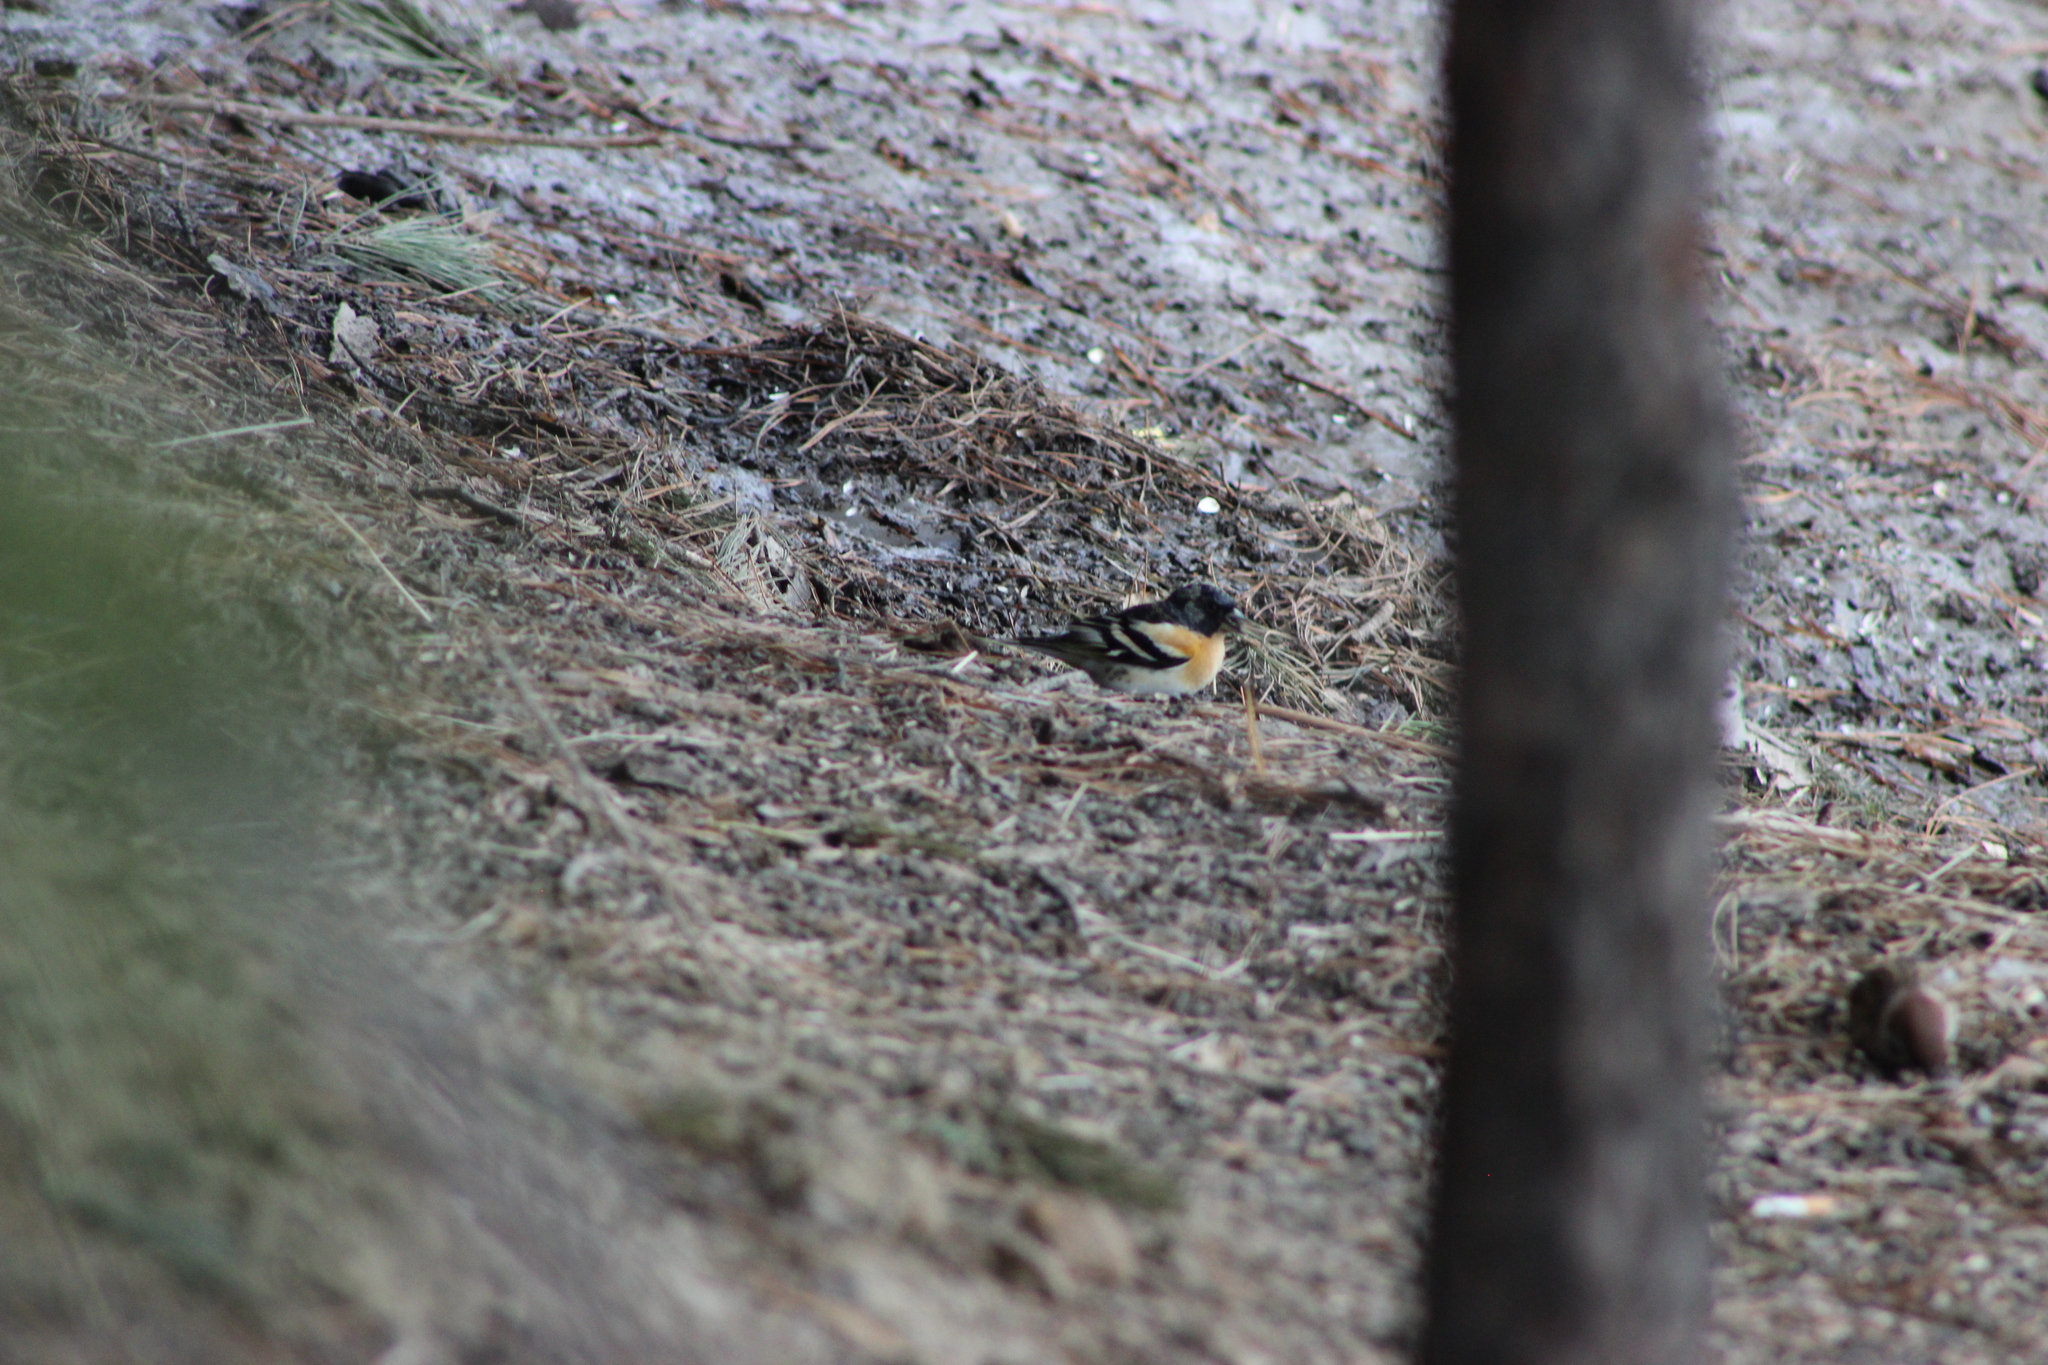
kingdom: Animalia
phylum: Chordata
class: Aves
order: Passeriformes
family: Fringillidae
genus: Fringilla
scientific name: Fringilla montifringilla
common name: Brambling
